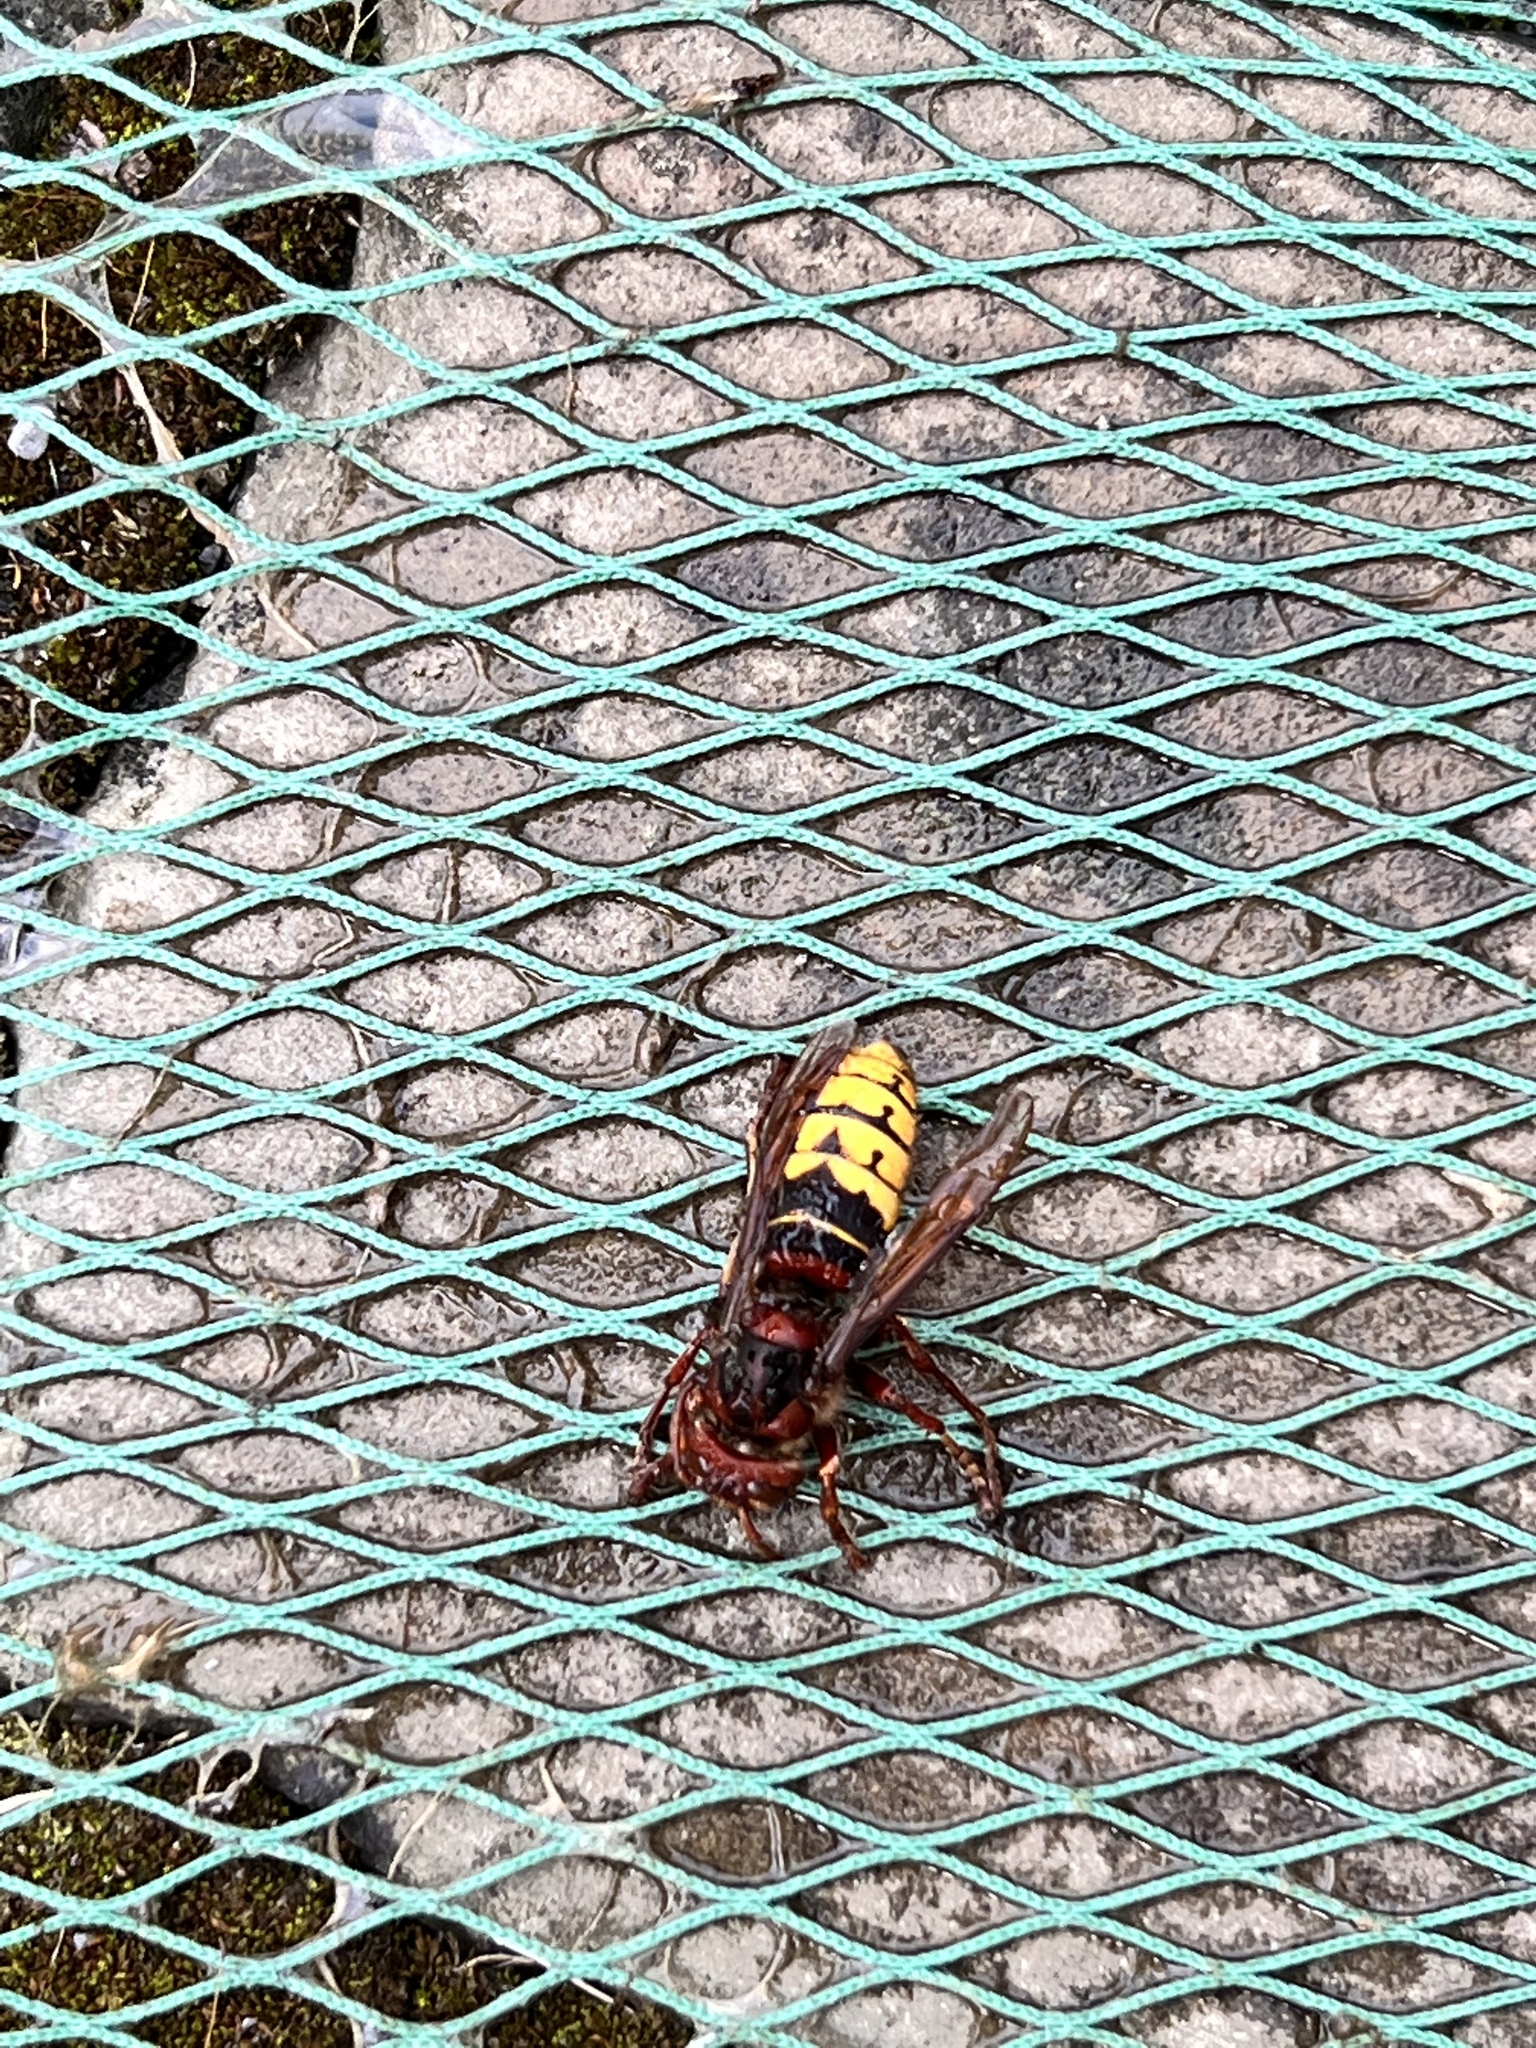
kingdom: Animalia
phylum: Arthropoda
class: Insecta
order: Hymenoptera
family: Vespidae
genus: Vespa
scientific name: Vespa crabro
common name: Hornet
